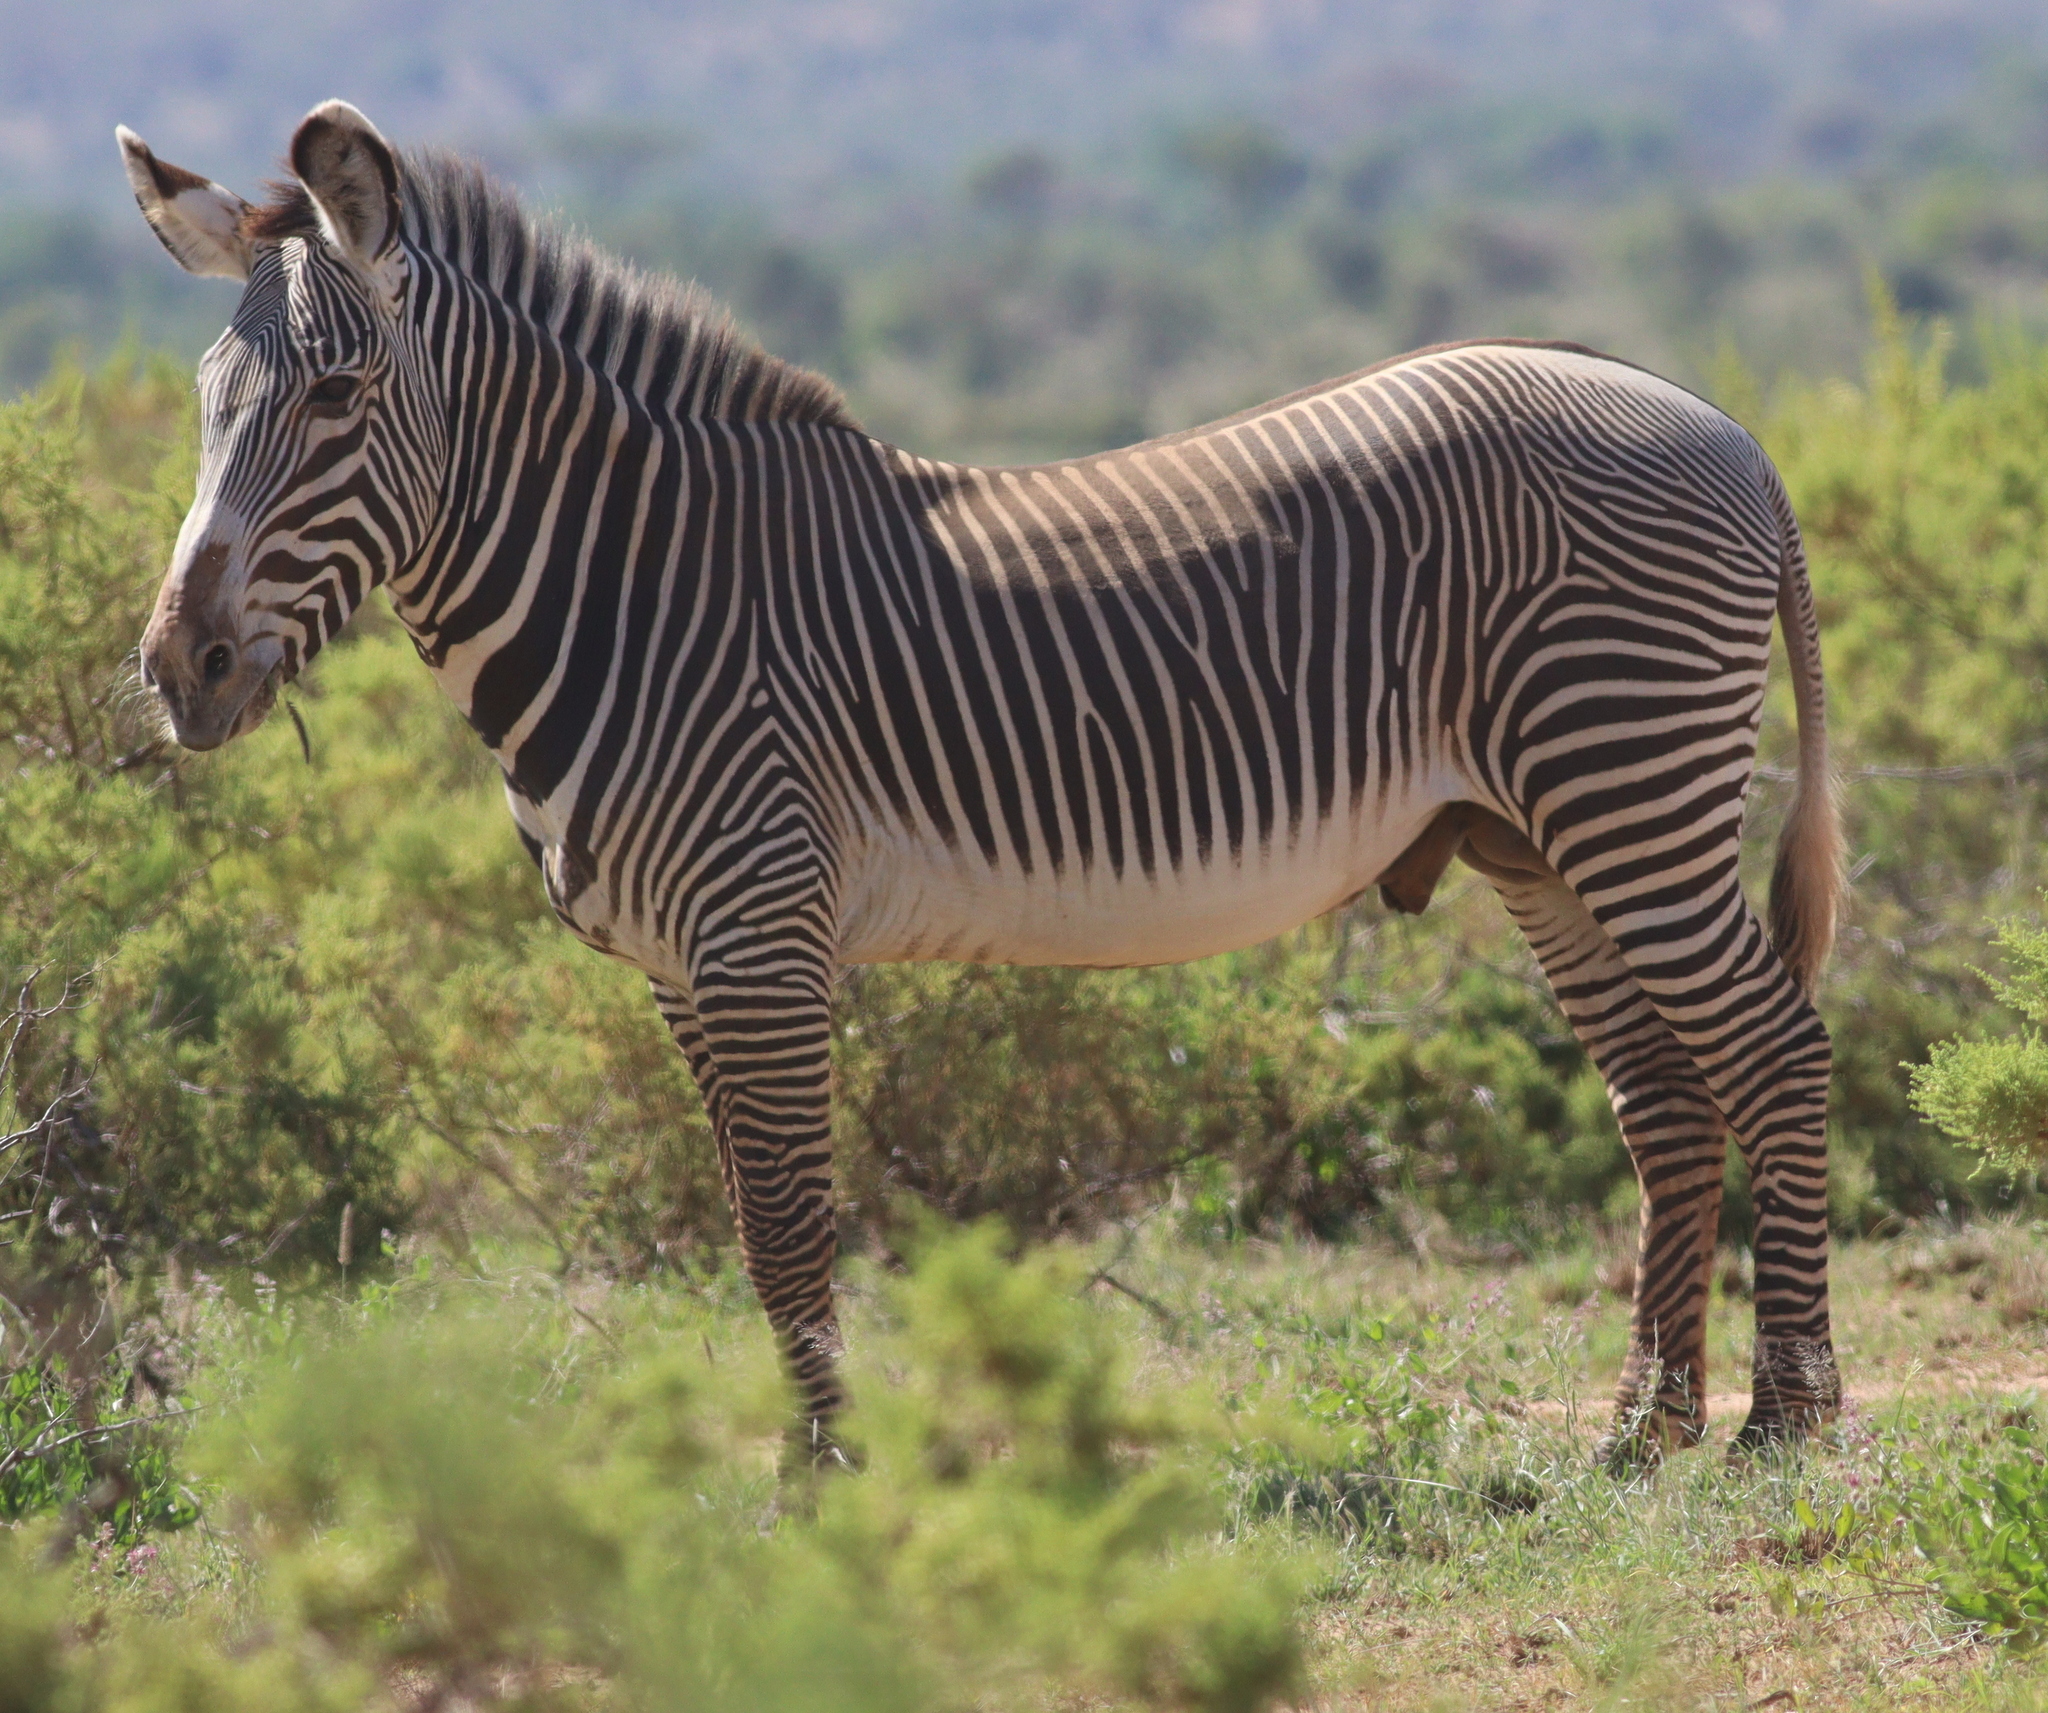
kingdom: Animalia
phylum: Chordata
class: Mammalia
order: Perissodactyla
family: Equidae
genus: Equus
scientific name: Equus grevyi
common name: Grevy's zebra
